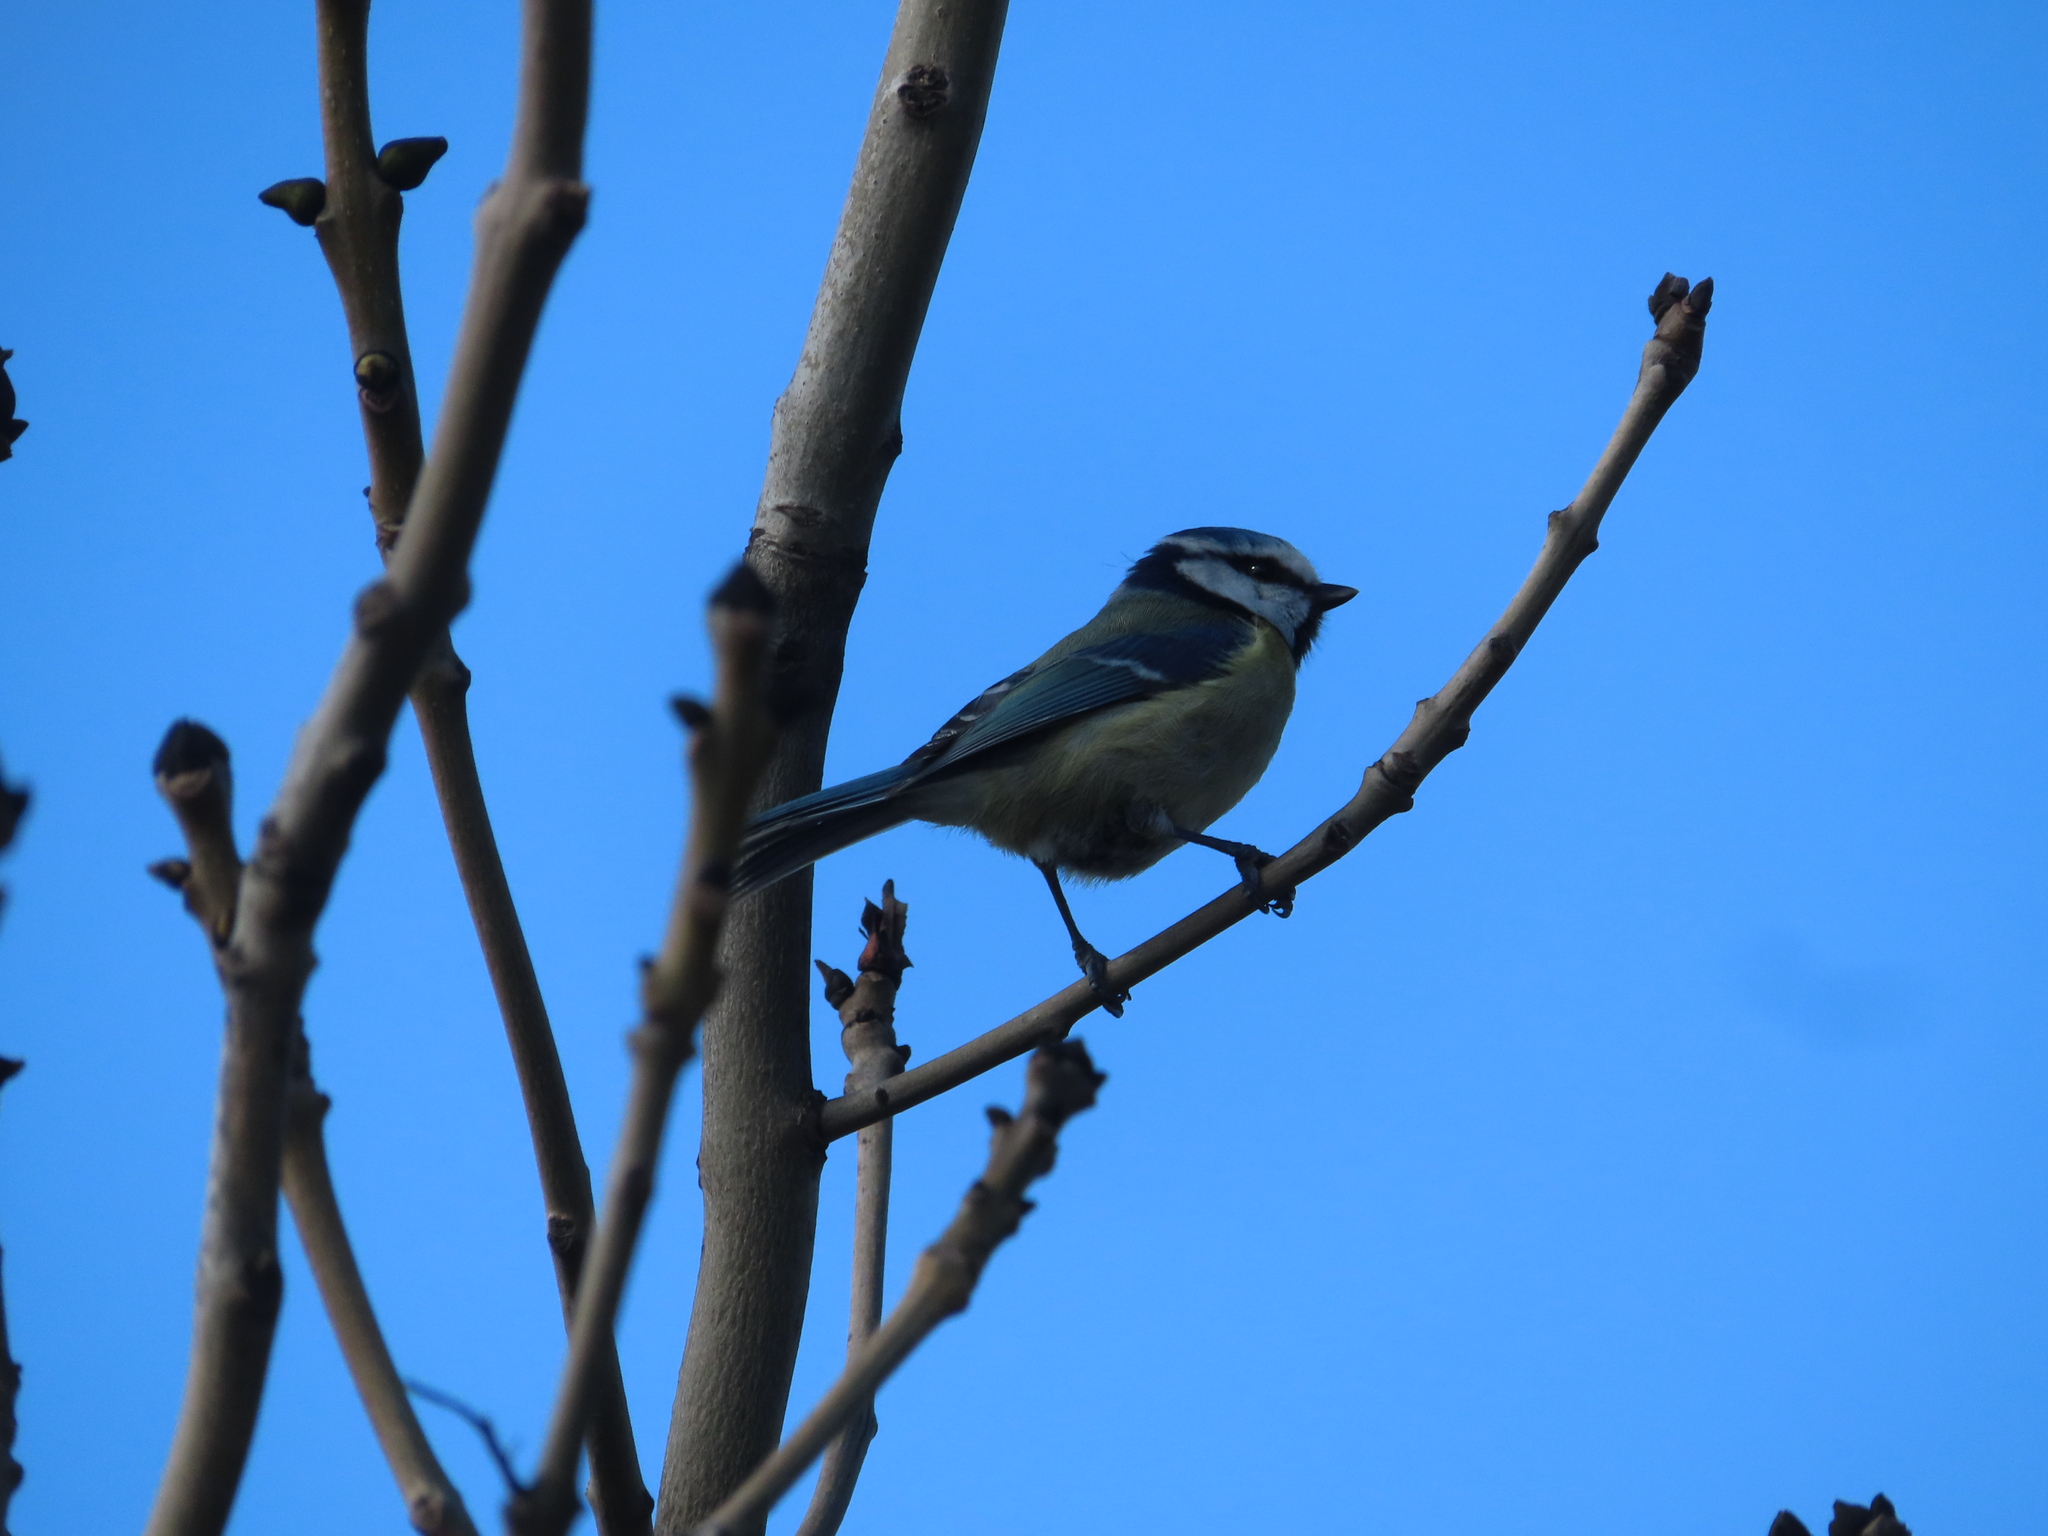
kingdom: Animalia
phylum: Chordata
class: Aves
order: Passeriformes
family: Paridae
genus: Cyanistes
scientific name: Cyanistes caeruleus
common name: Eurasian blue tit
